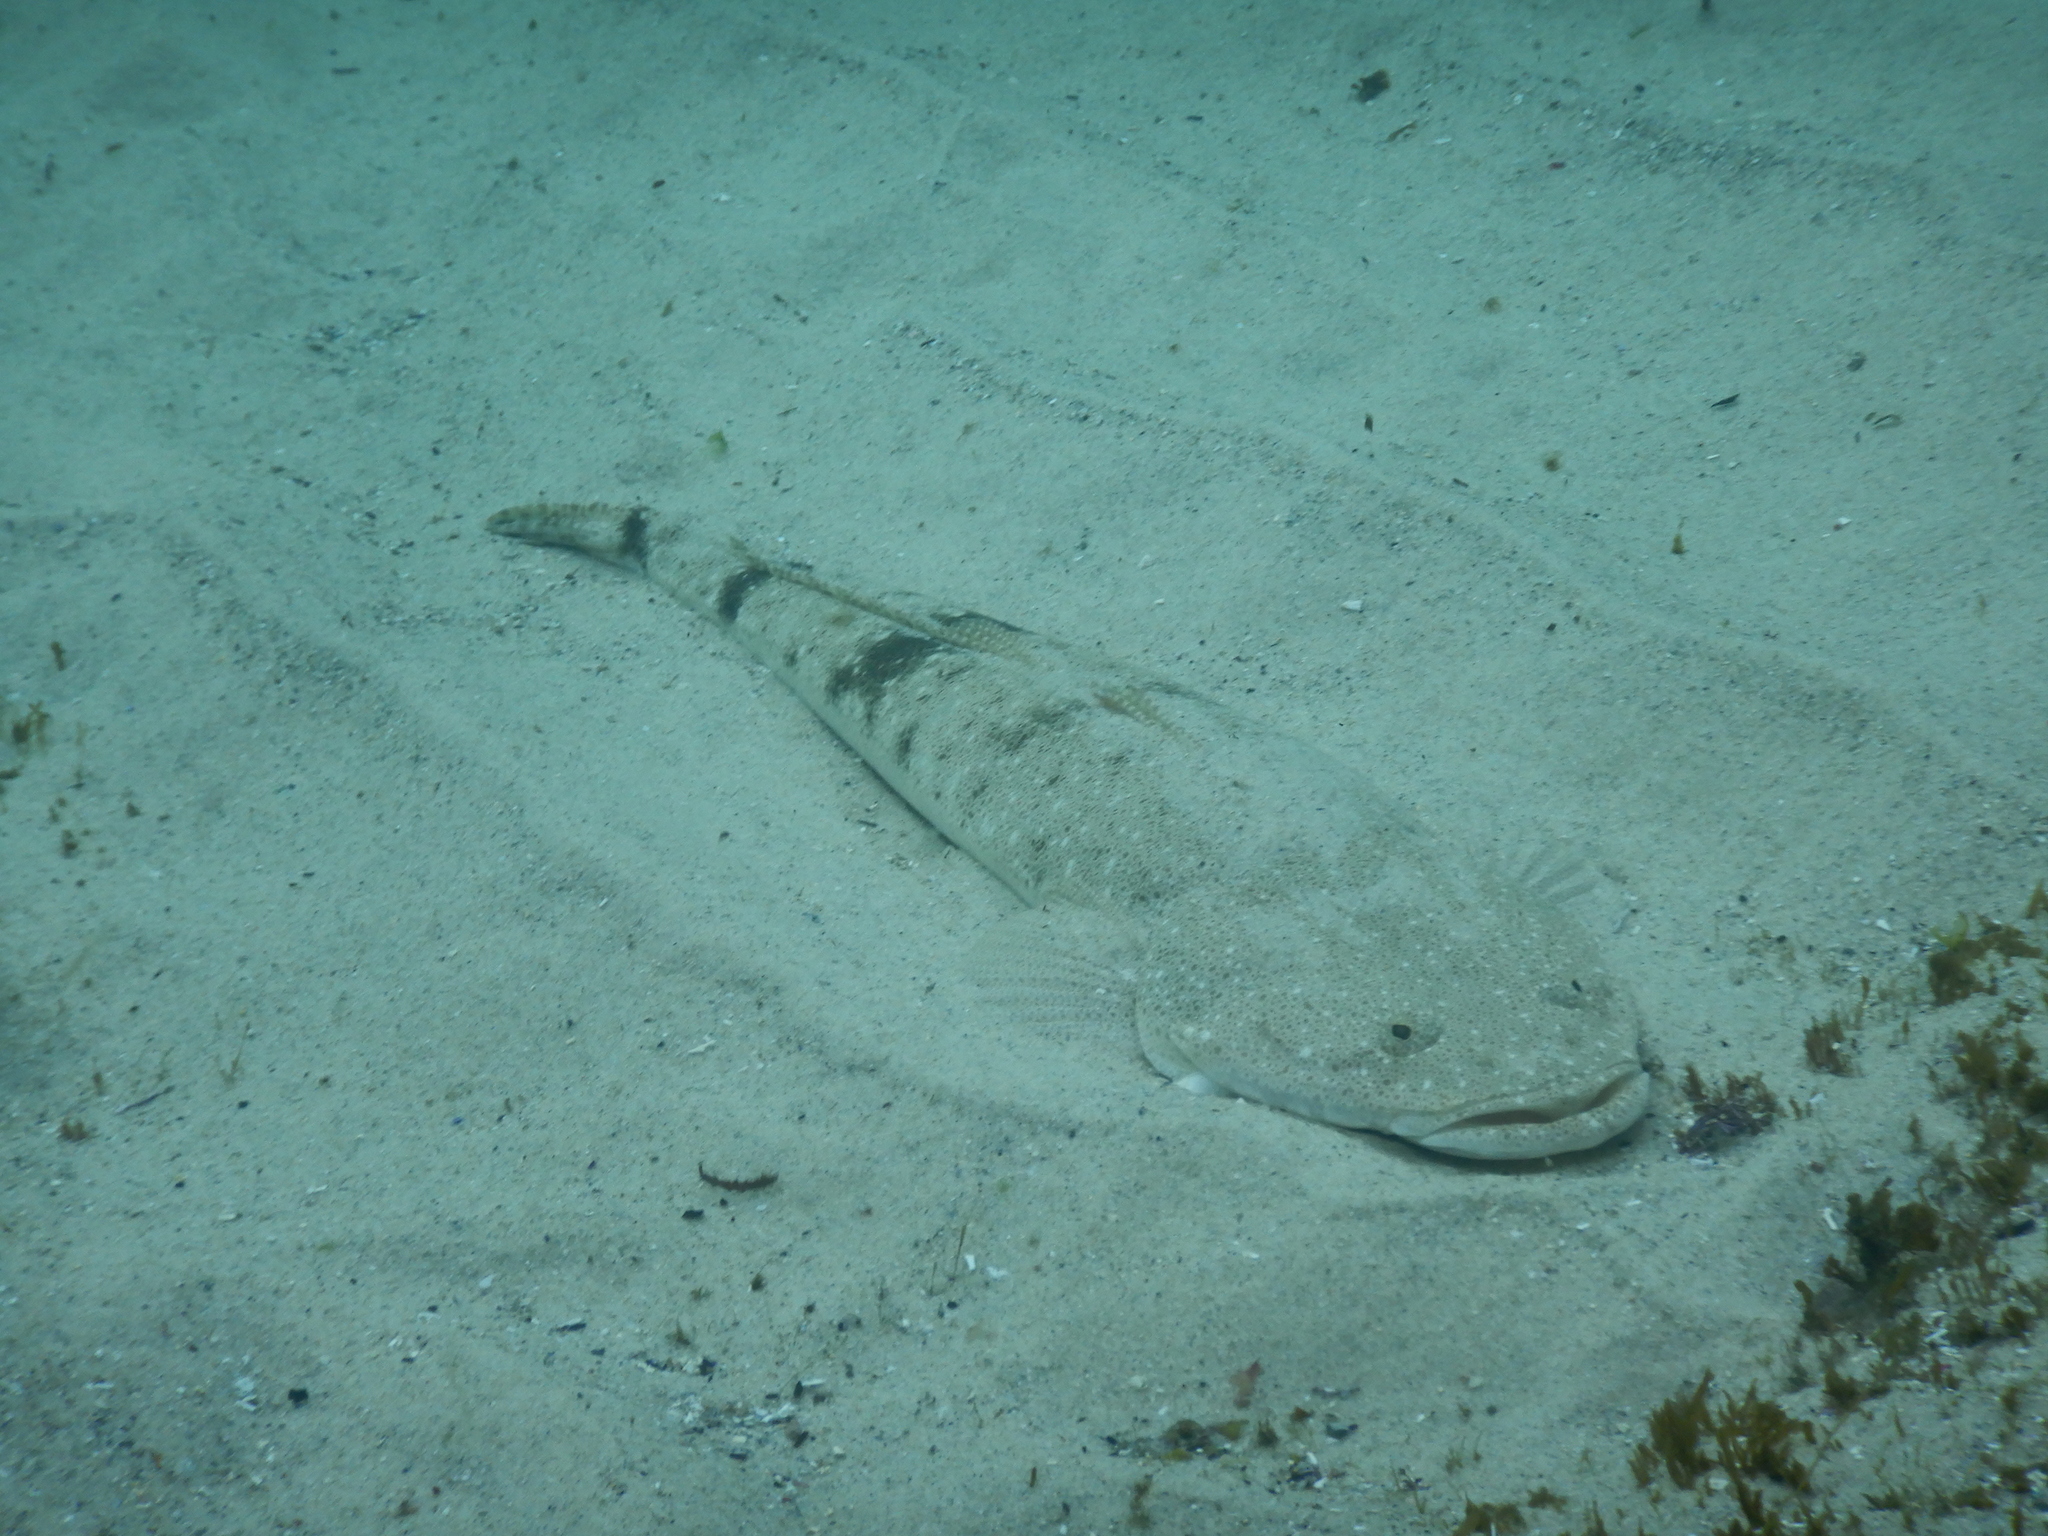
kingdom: Animalia
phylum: Chordata
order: Scorpaeniformes
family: Platycephalidae
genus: Platycephalus
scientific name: Platycephalus fuscus
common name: Dusky flathead
